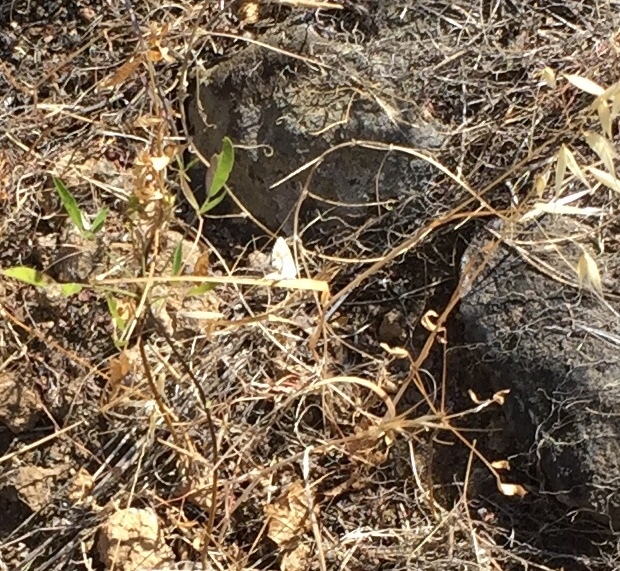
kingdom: Animalia
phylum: Arthropoda
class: Insecta
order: Lepidoptera
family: Lycaenidae
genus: Cacyreus
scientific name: Cacyreus marshalli
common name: Geranium bronze
